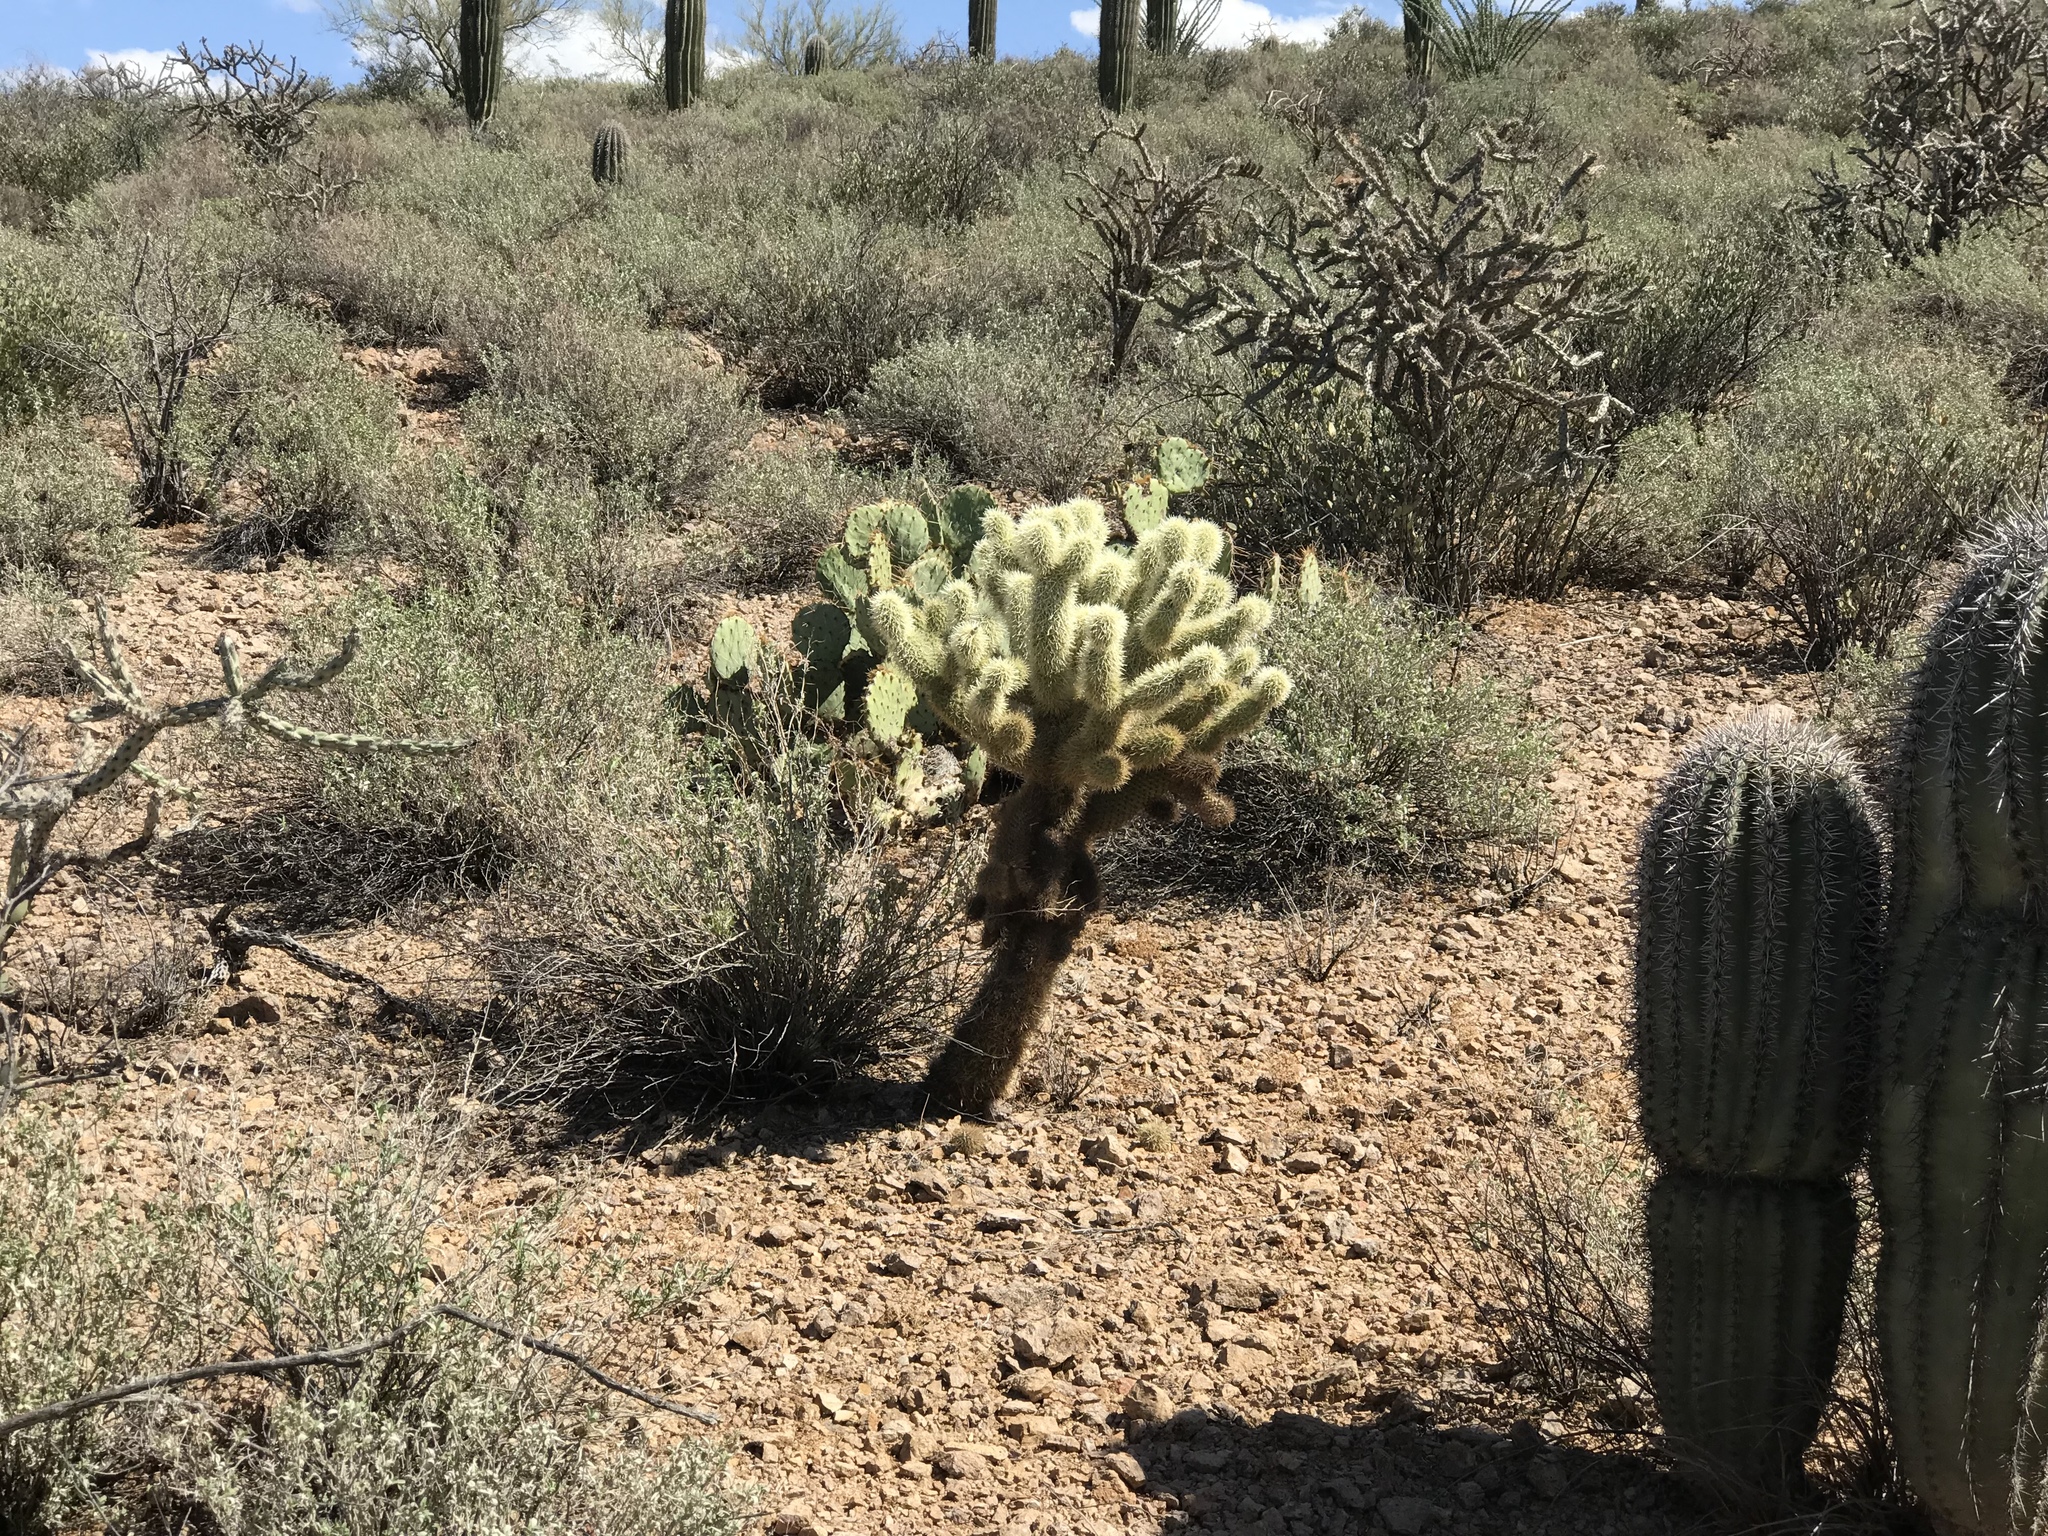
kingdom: Plantae
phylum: Tracheophyta
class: Magnoliopsida
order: Caryophyllales
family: Cactaceae
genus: Cylindropuntia
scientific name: Cylindropuntia fosbergii
